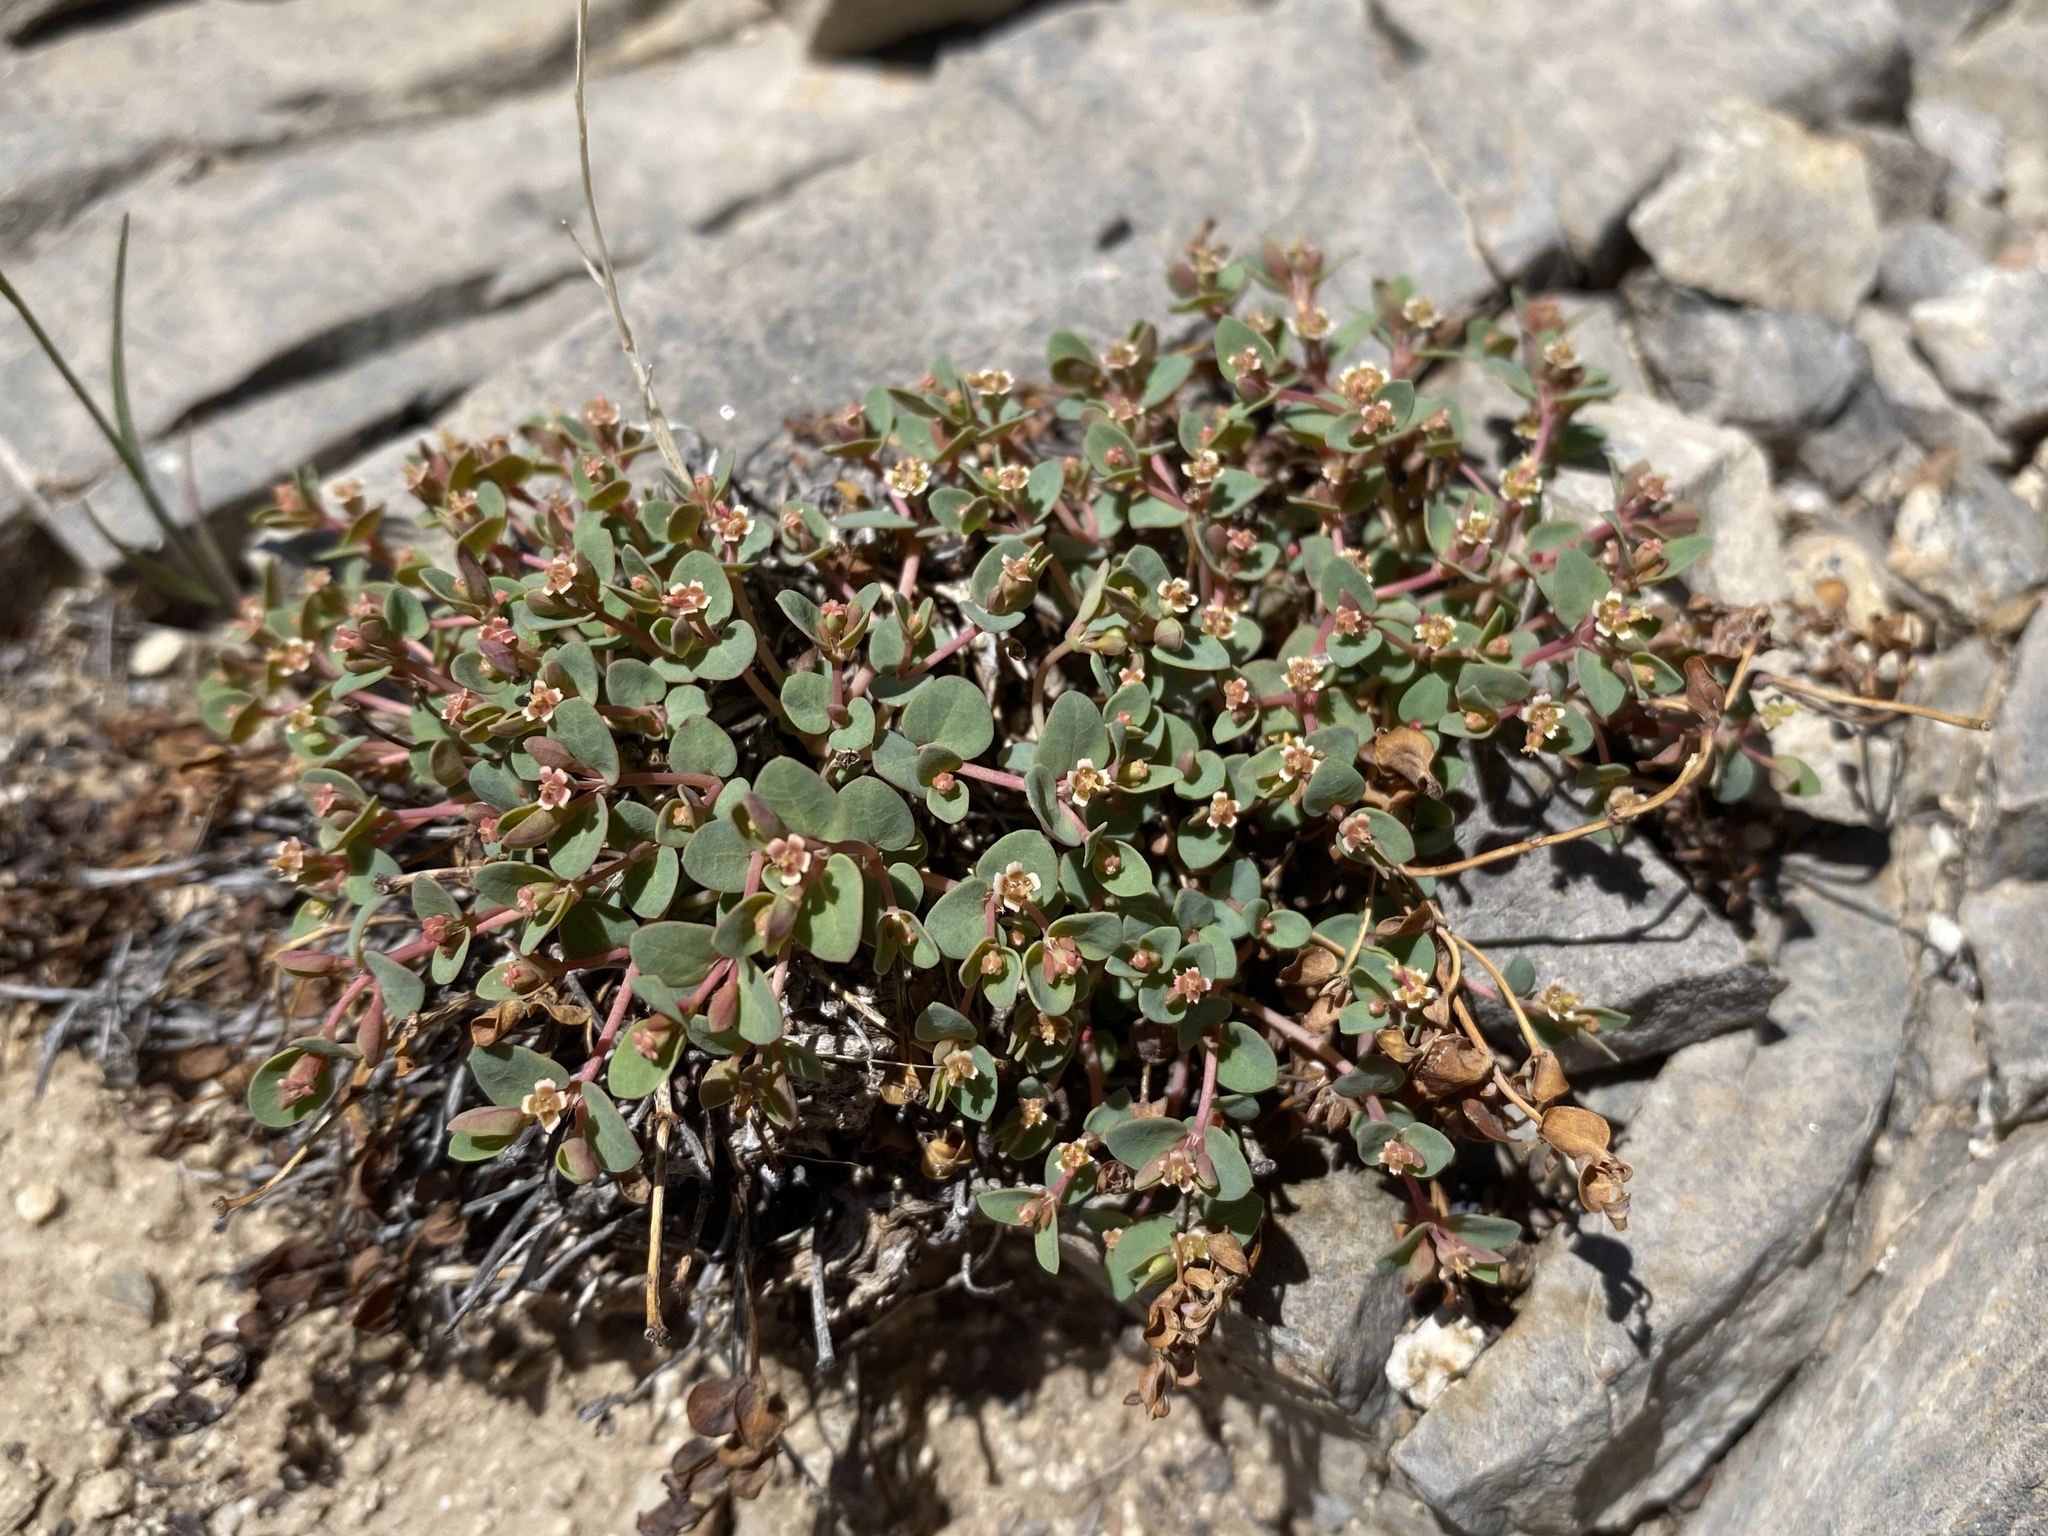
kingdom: Plantae
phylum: Tracheophyta
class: Magnoliopsida
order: Malpighiales
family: Euphorbiaceae
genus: Euphorbia
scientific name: Euphorbia fendleri
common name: Fendler's euphorbia
